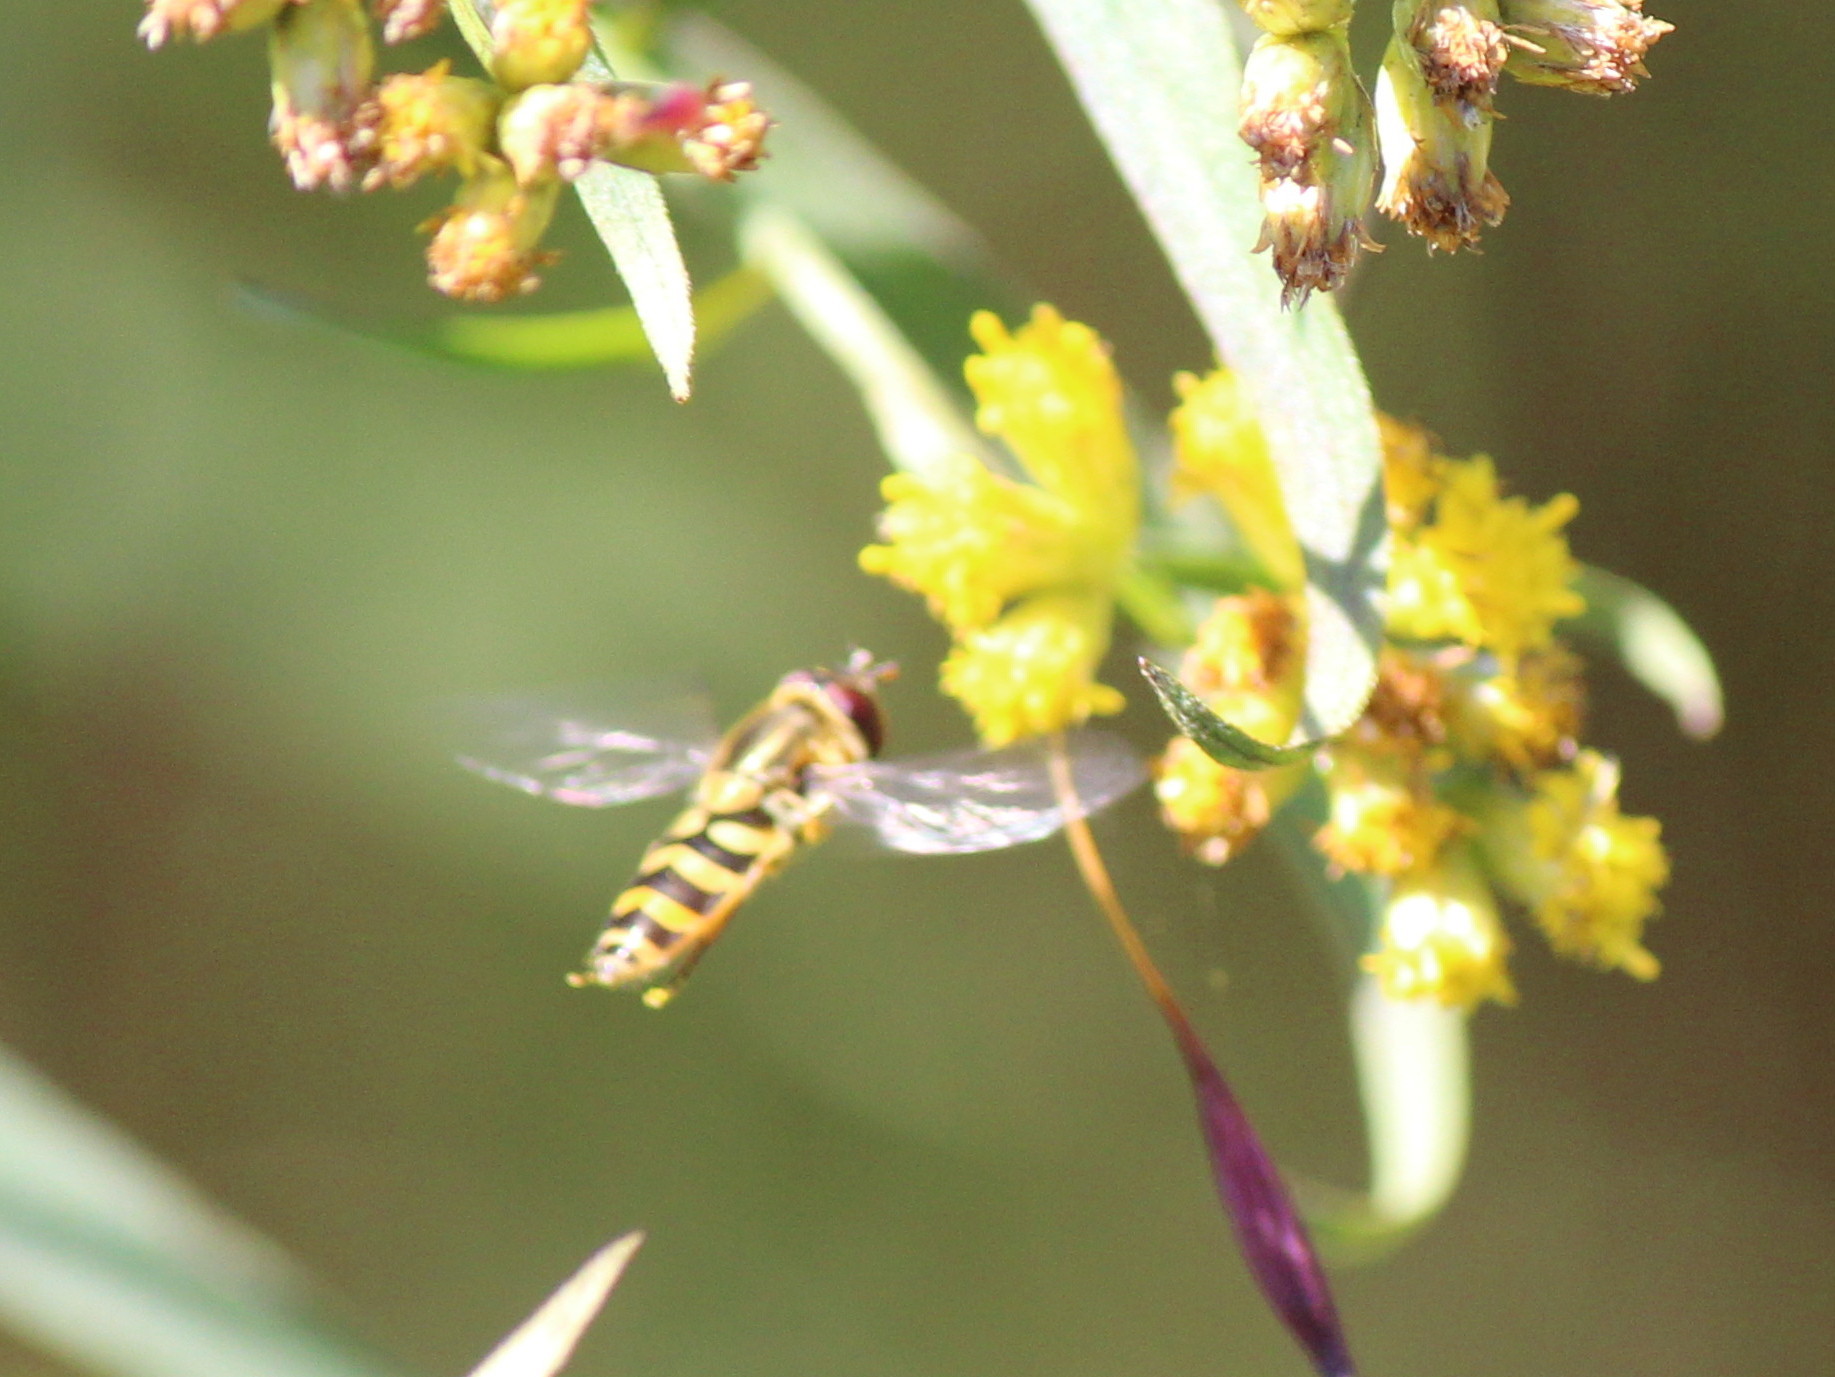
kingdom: Animalia
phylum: Arthropoda
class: Insecta
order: Diptera
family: Syrphidae
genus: Syrphus
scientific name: Syrphus
